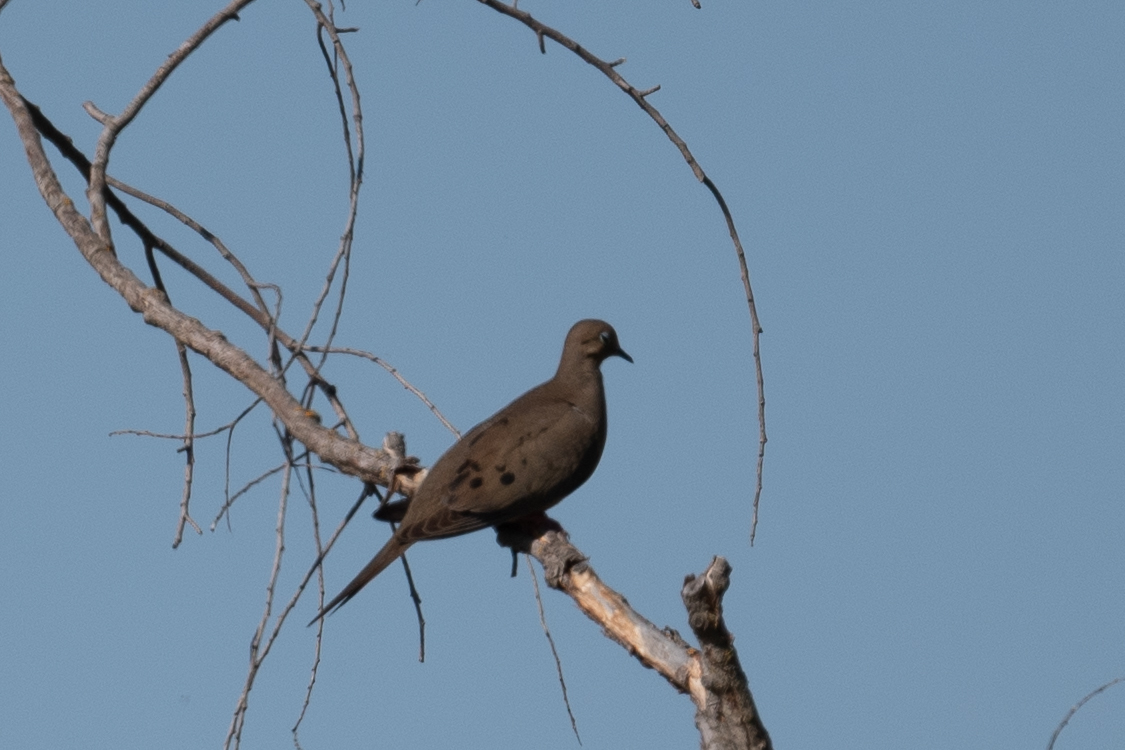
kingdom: Animalia
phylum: Chordata
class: Aves
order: Columbiformes
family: Columbidae
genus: Zenaida
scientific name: Zenaida macroura
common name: Mourning dove
